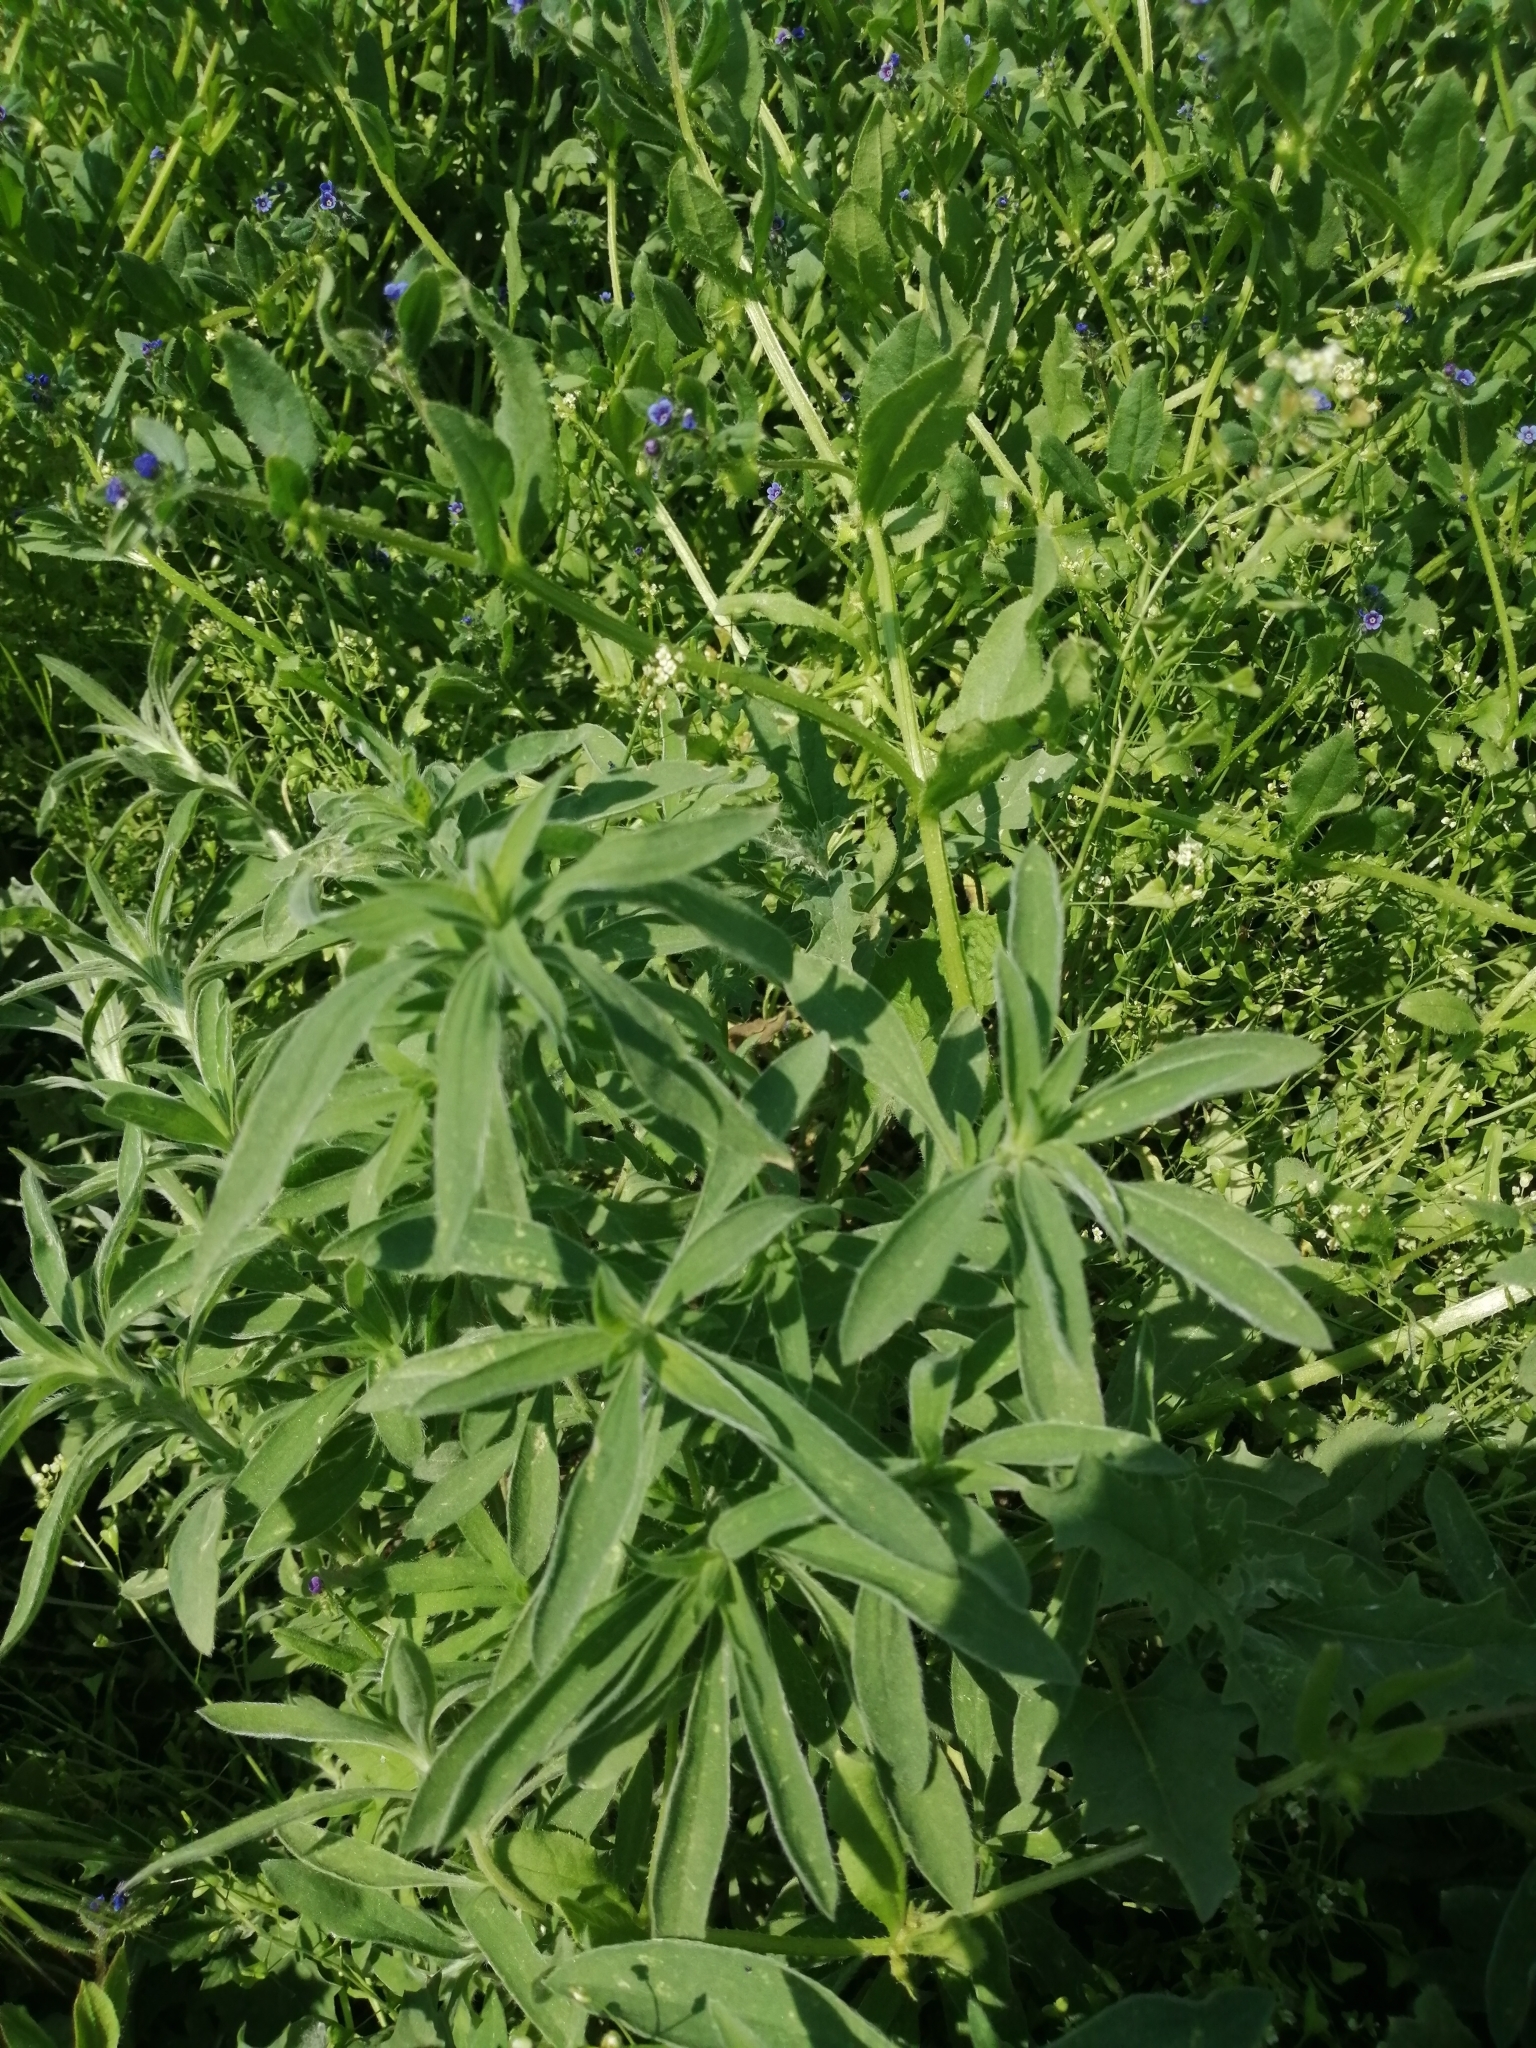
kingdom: Plantae
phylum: Tracheophyta
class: Magnoliopsida
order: Caryophyllales
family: Amaranthaceae
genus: Bassia
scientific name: Bassia scoparia
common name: Belvedere
